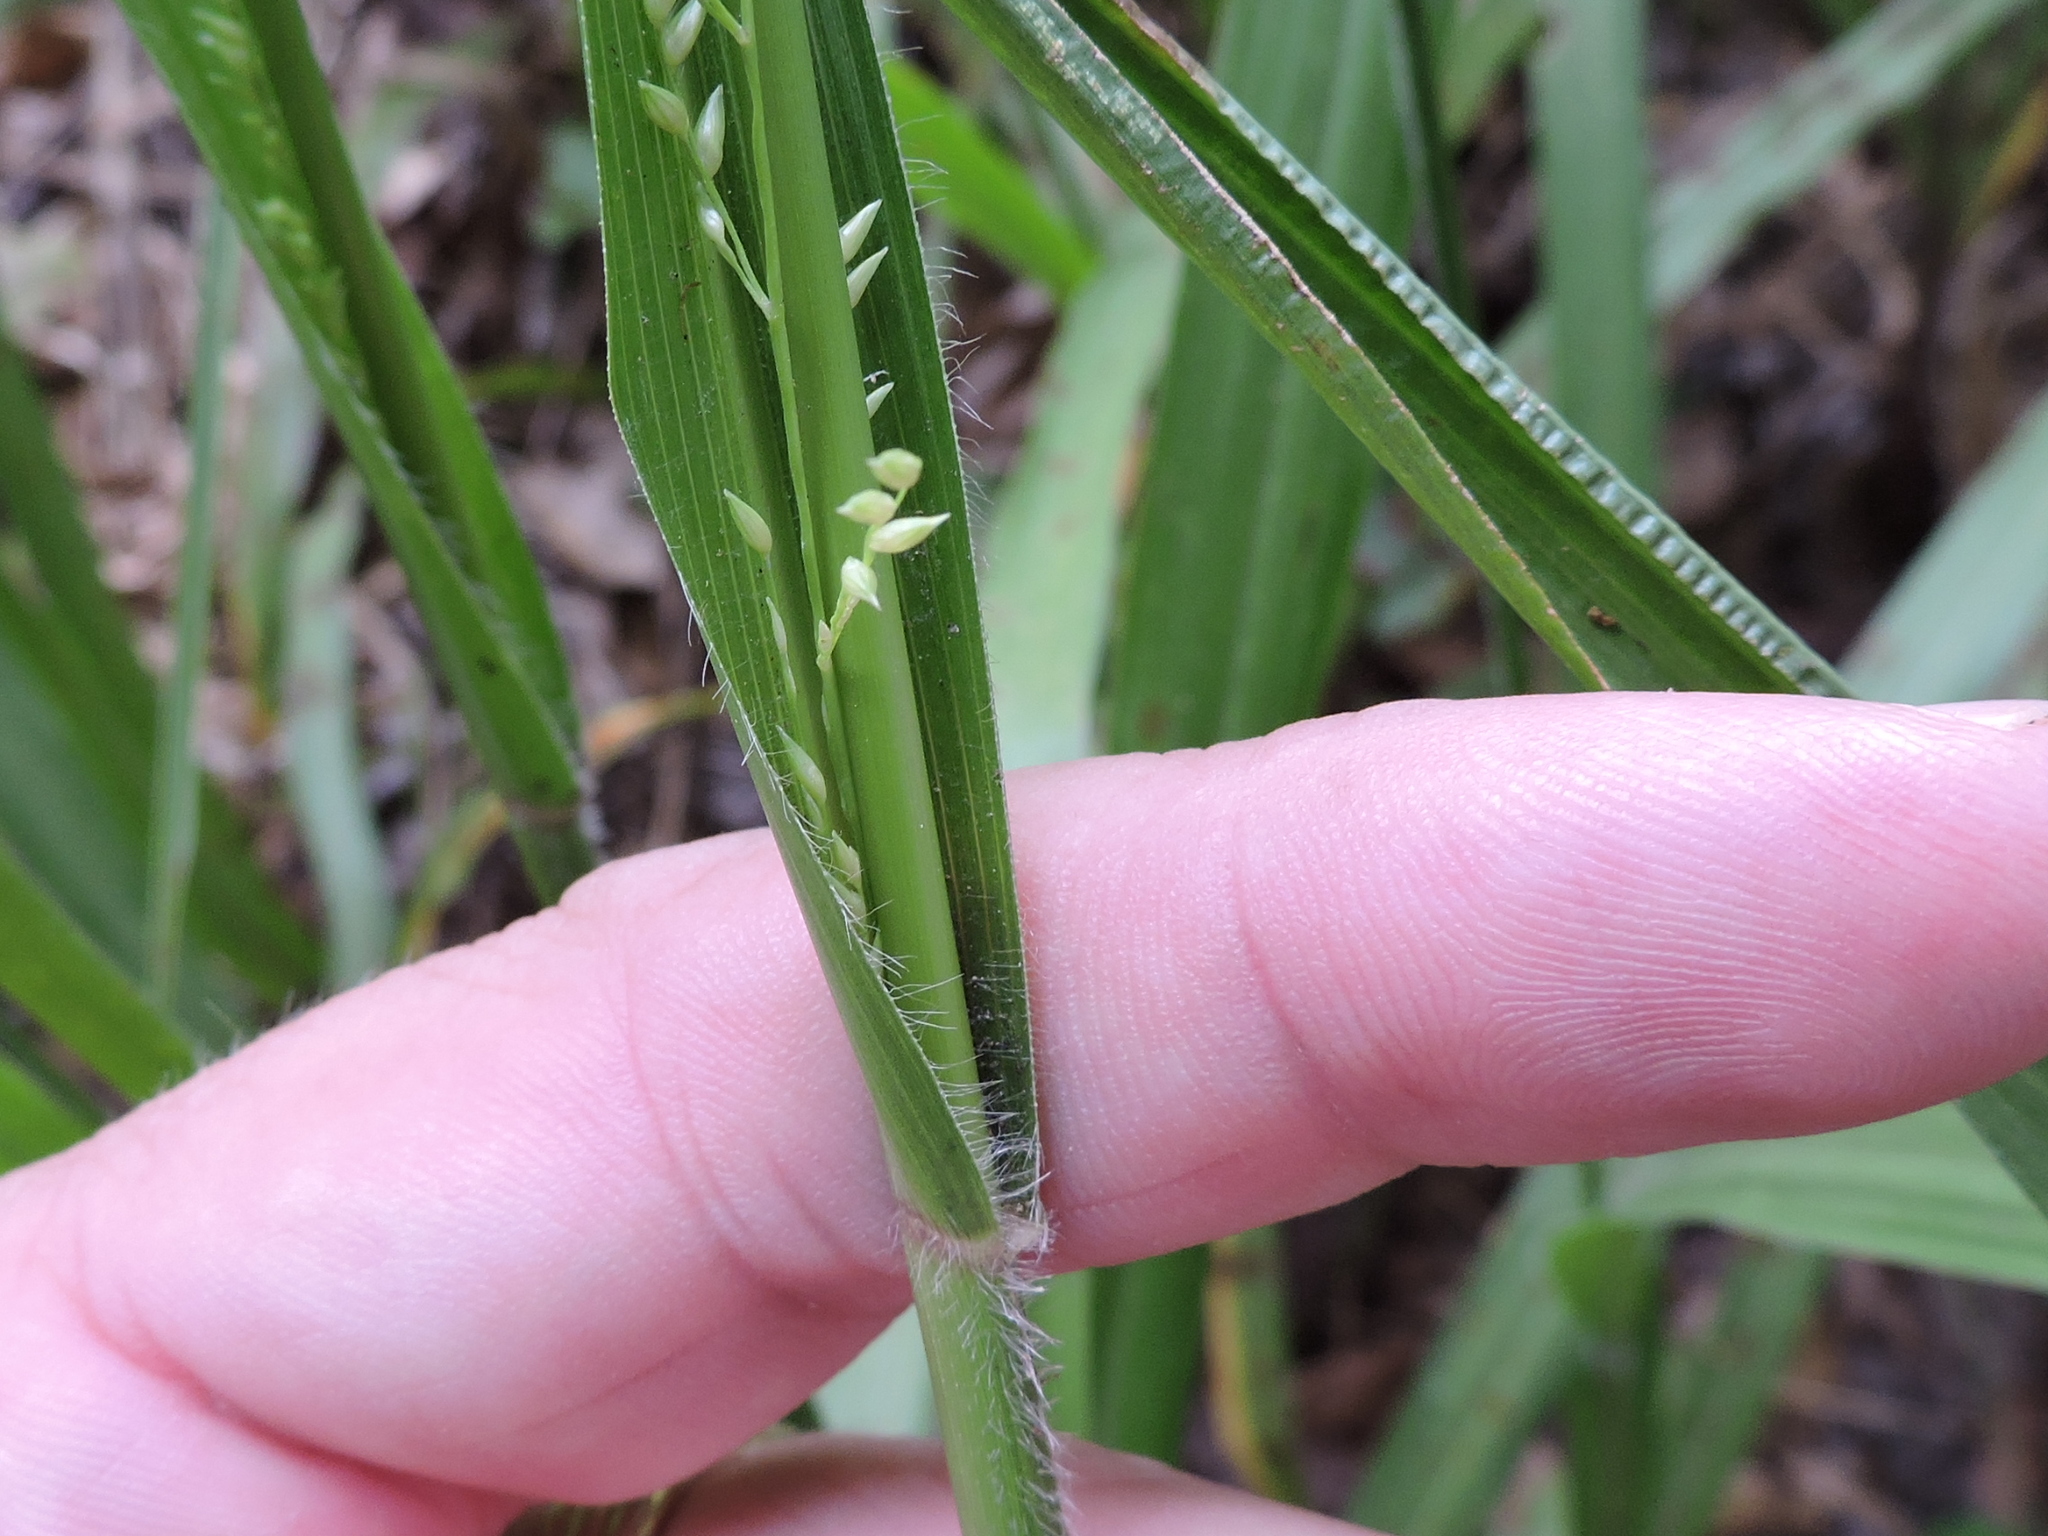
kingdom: Plantae
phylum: Tracheophyta
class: Liliopsida
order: Poales
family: Poaceae
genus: Coleataenia
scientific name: Coleataenia anceps
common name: Beaked panic grass
